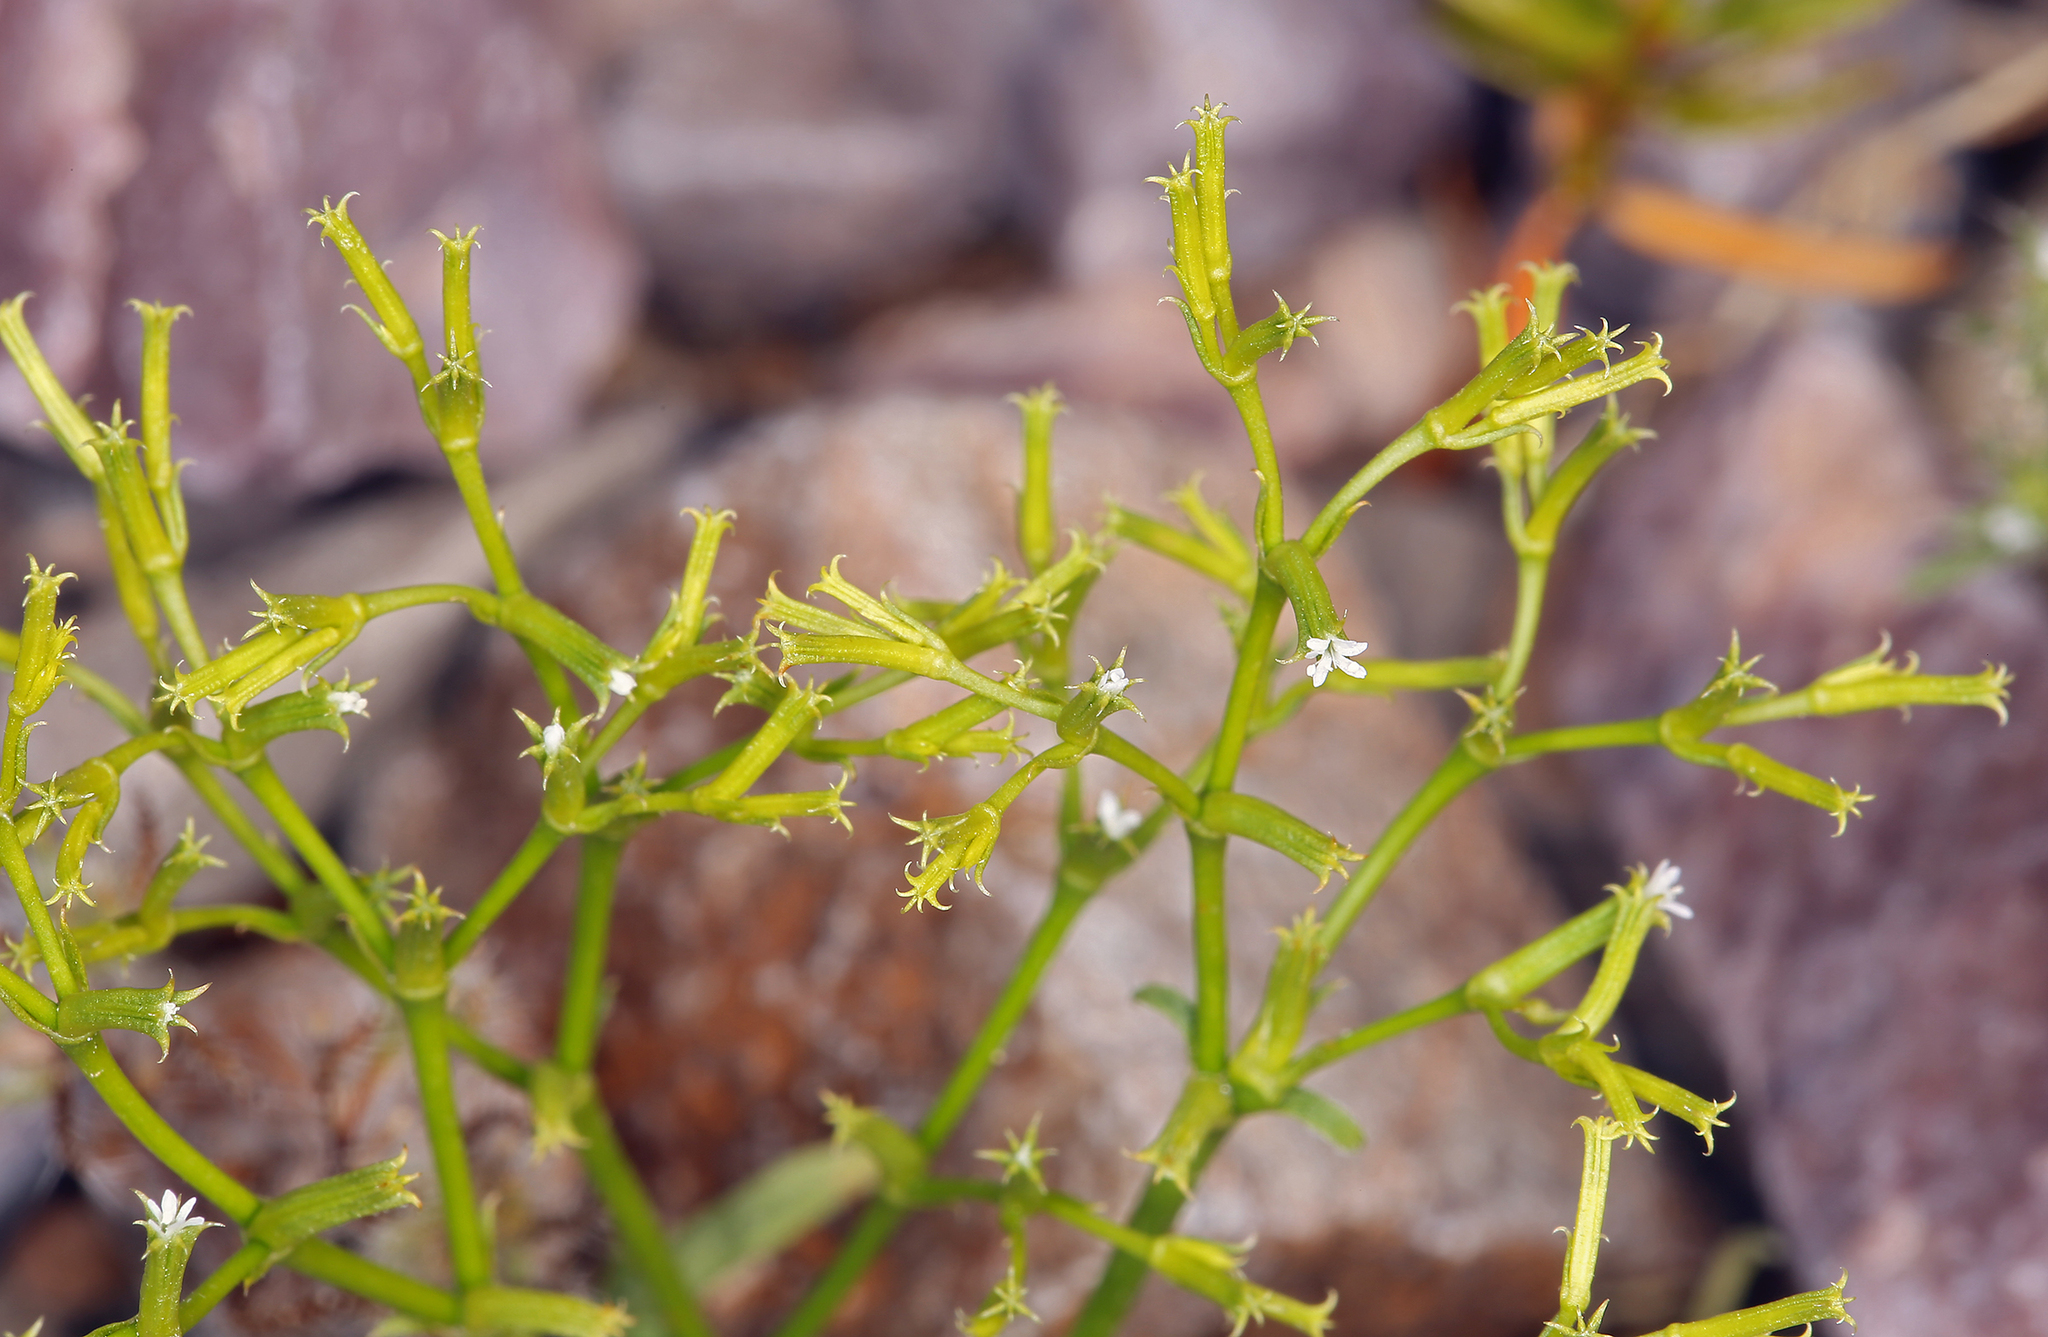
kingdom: Plantae
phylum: Tracheophyta
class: Magnoliopsida
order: Caryophyllales
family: Polygonaceae
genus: Chorizanthe
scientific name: Chorizanthe brevicornu
